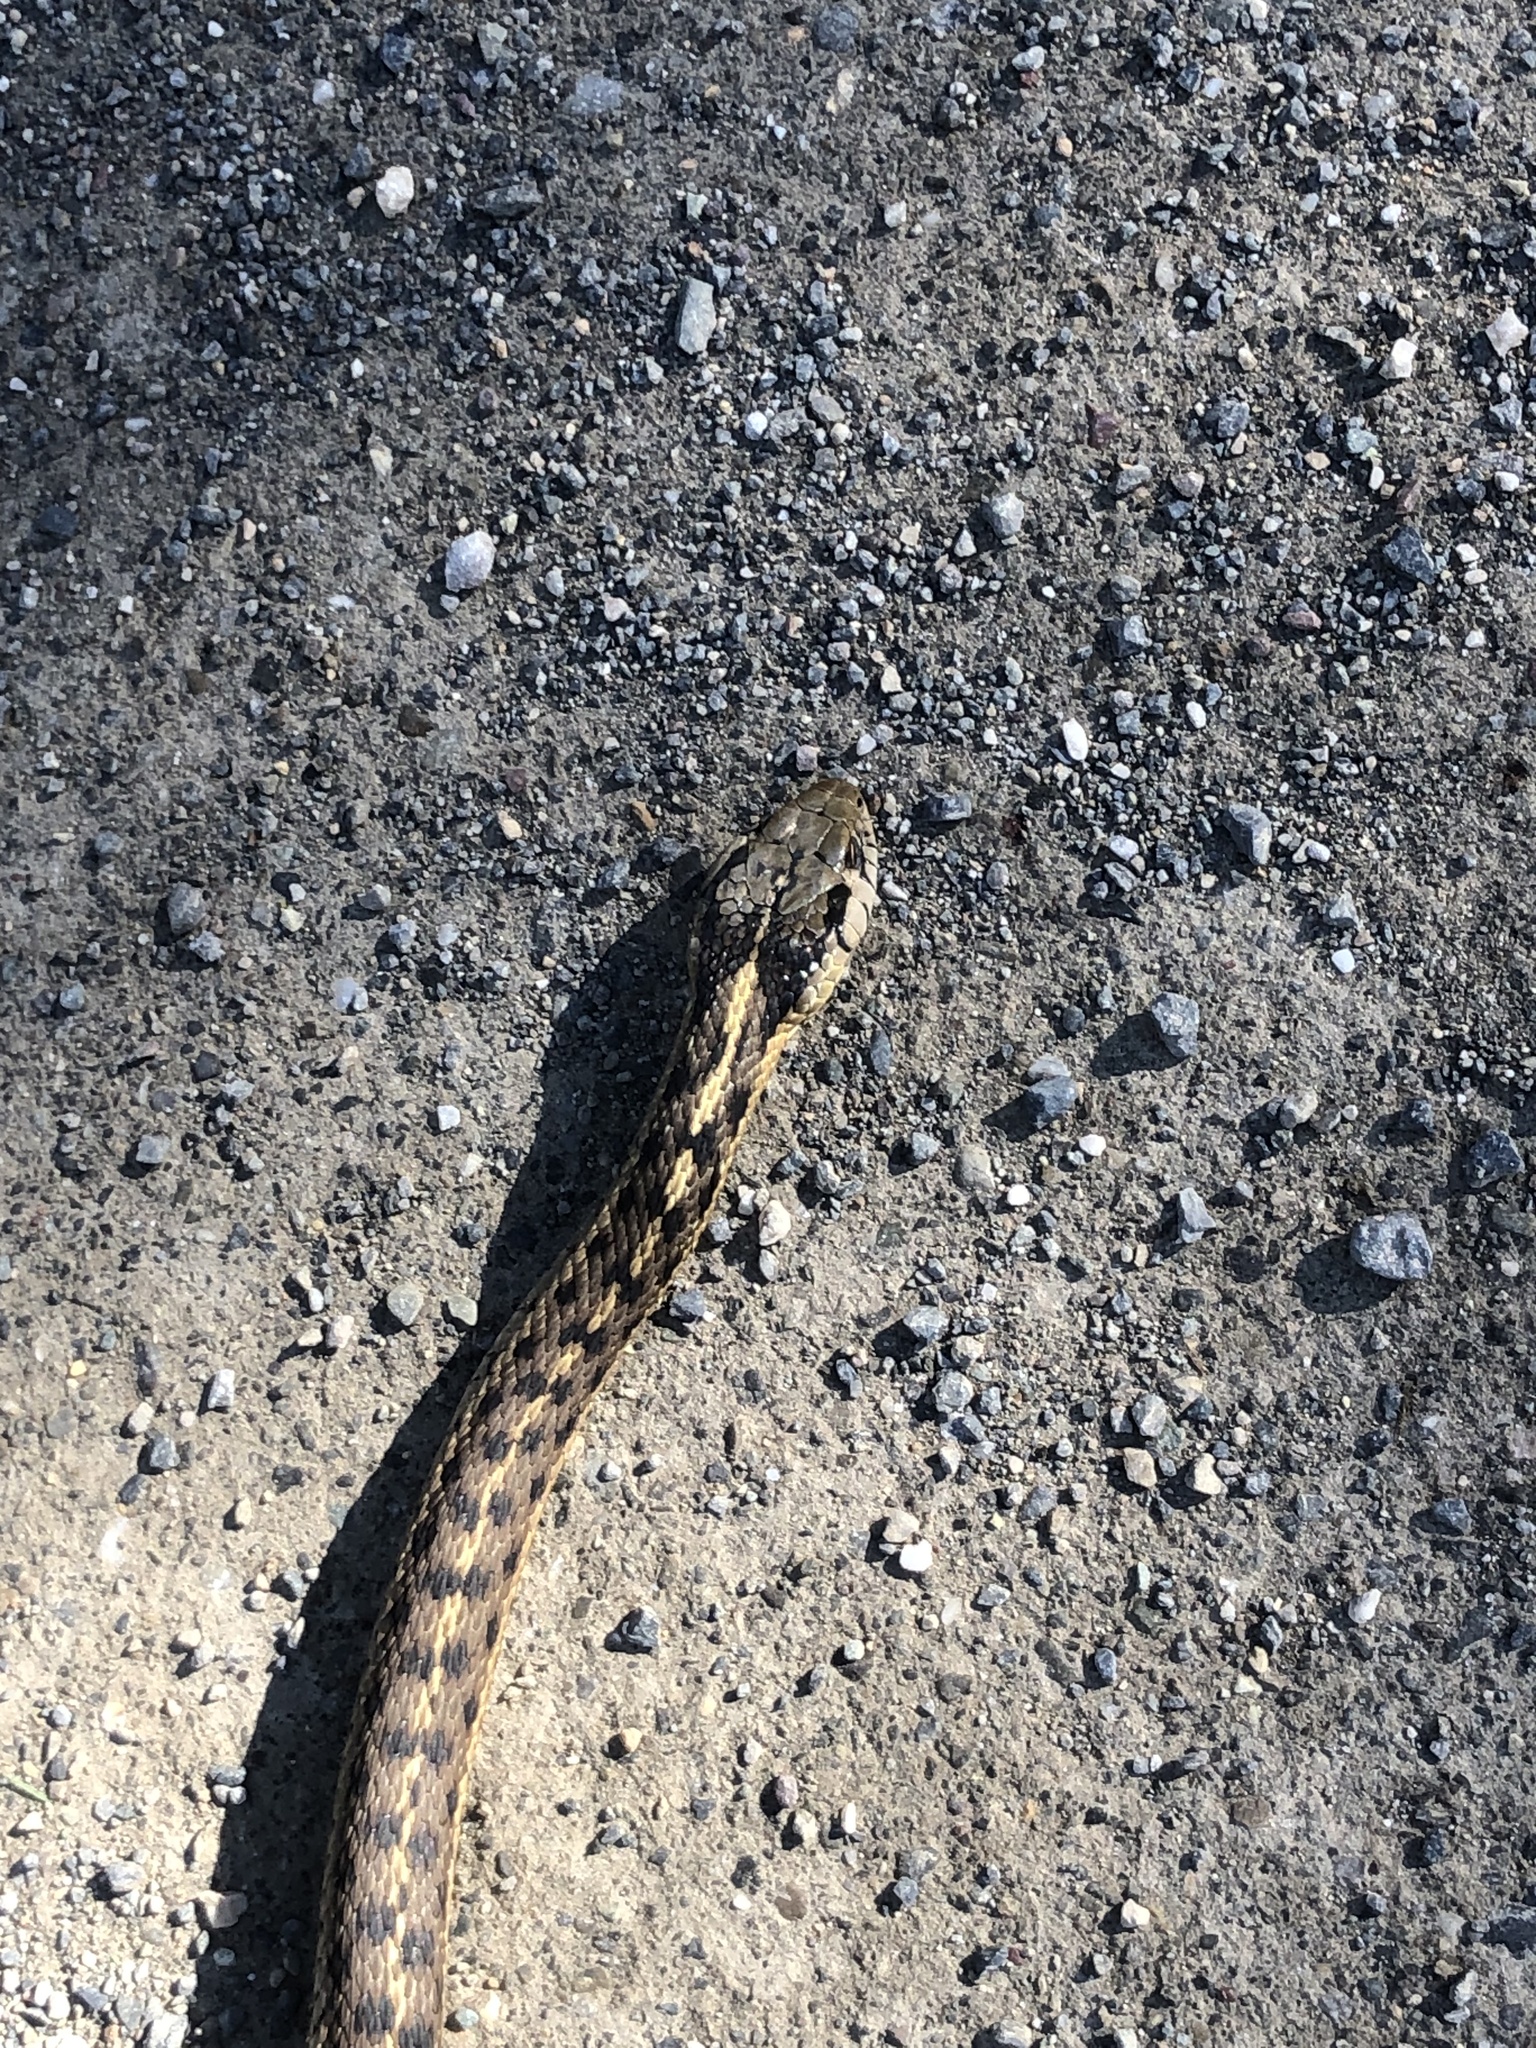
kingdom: Animalia
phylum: Chordata
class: Squamata
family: Colubridae
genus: Thamnophis
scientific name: Thamnophis elegans
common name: Western terrestrial garter snake
